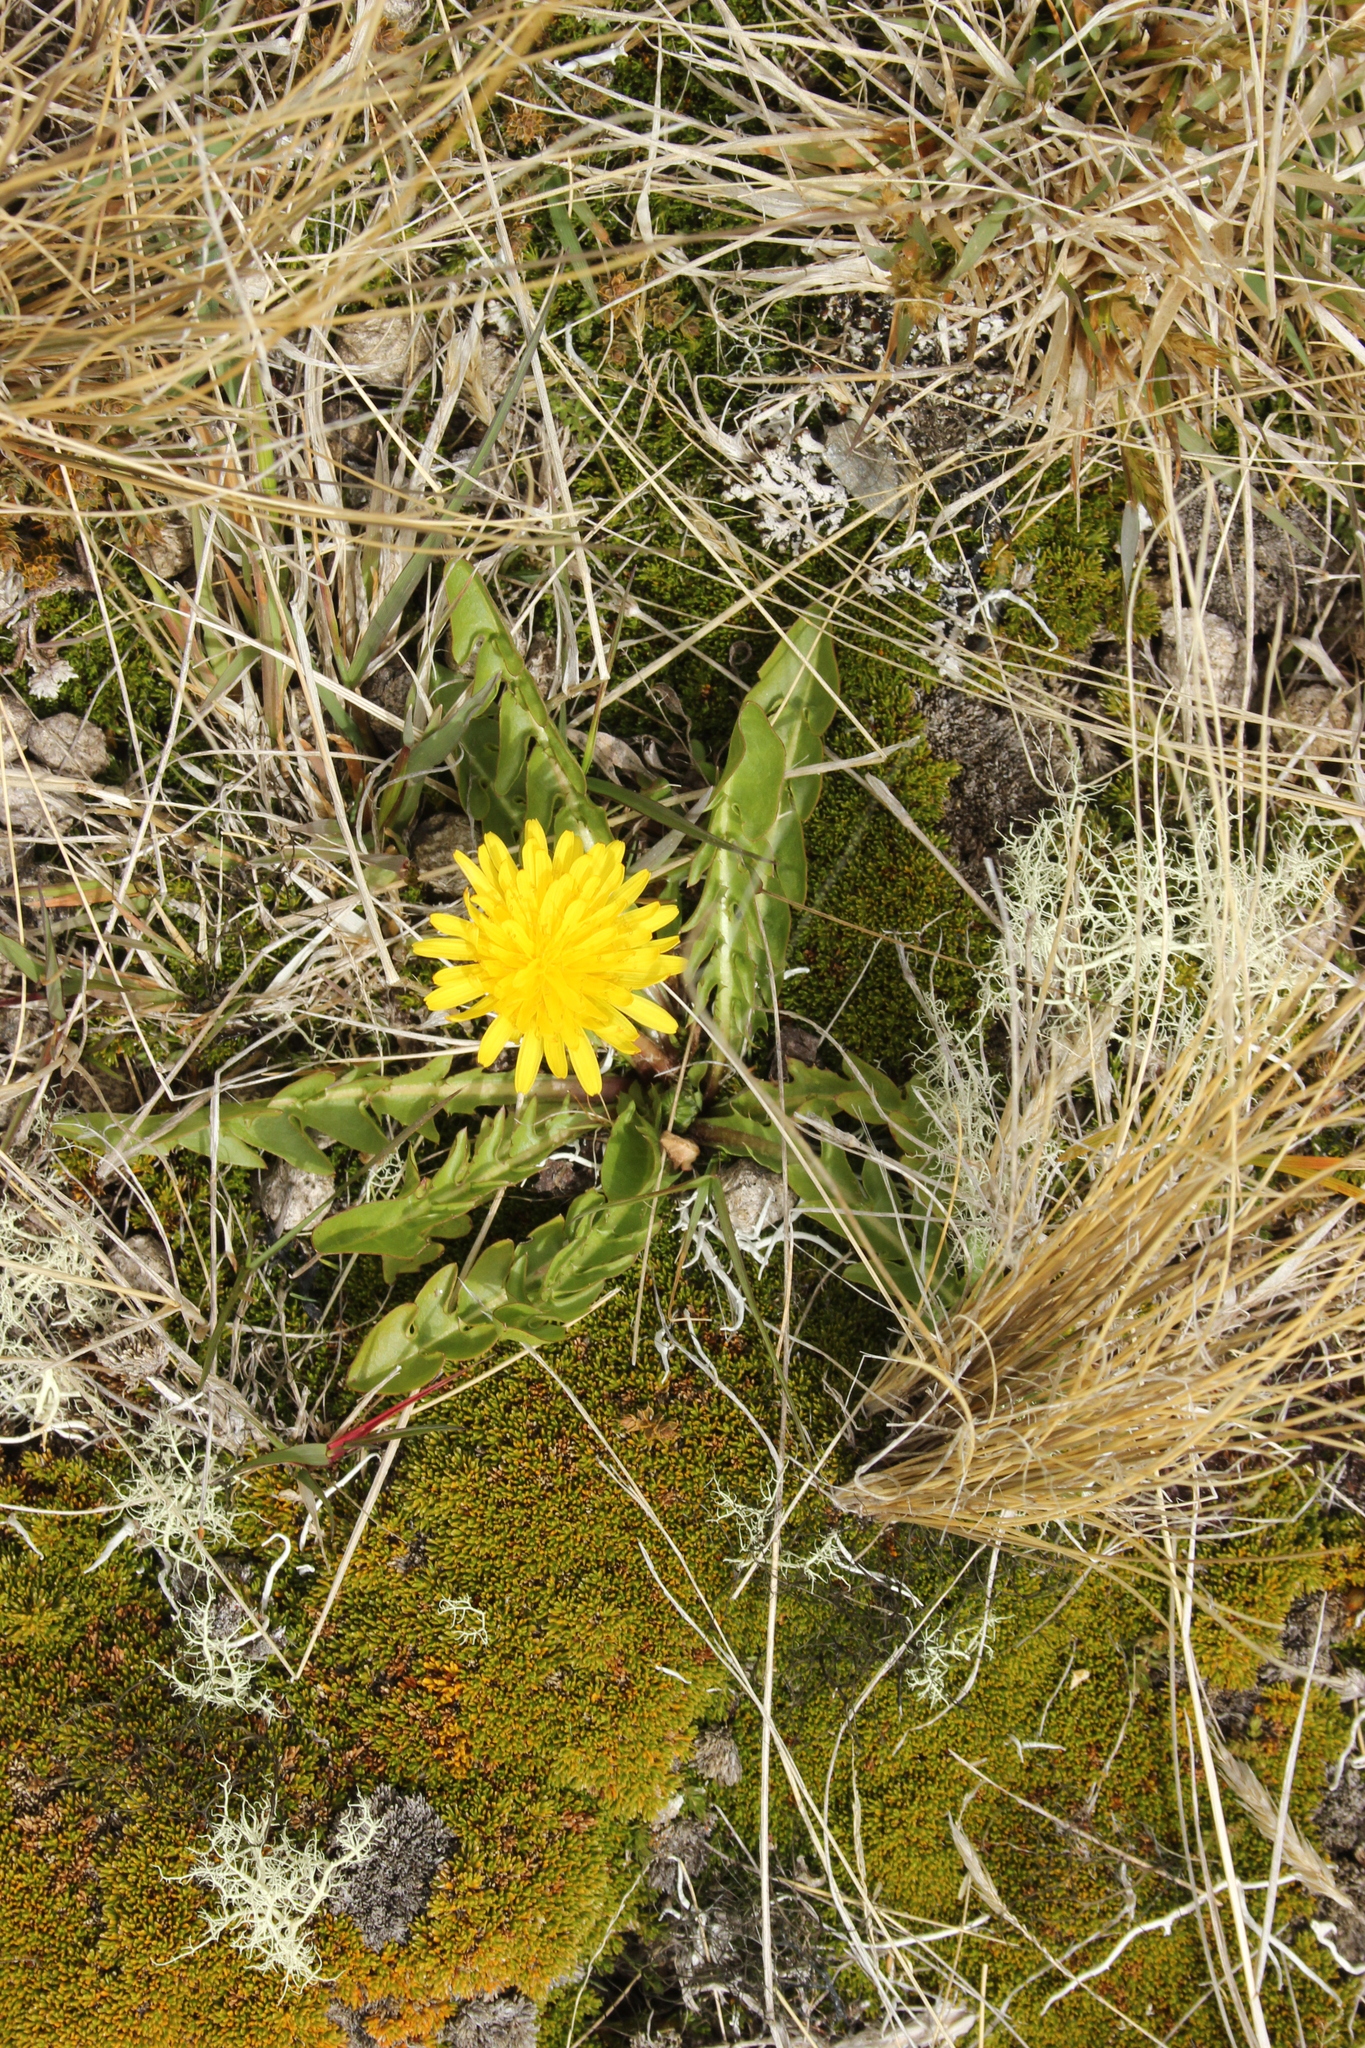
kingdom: Plantae
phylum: Tracheophyta
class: Magnoliopsida
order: Asterales
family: Asteraceae
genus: Taraxacum
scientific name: Taraxacum zealandicum
